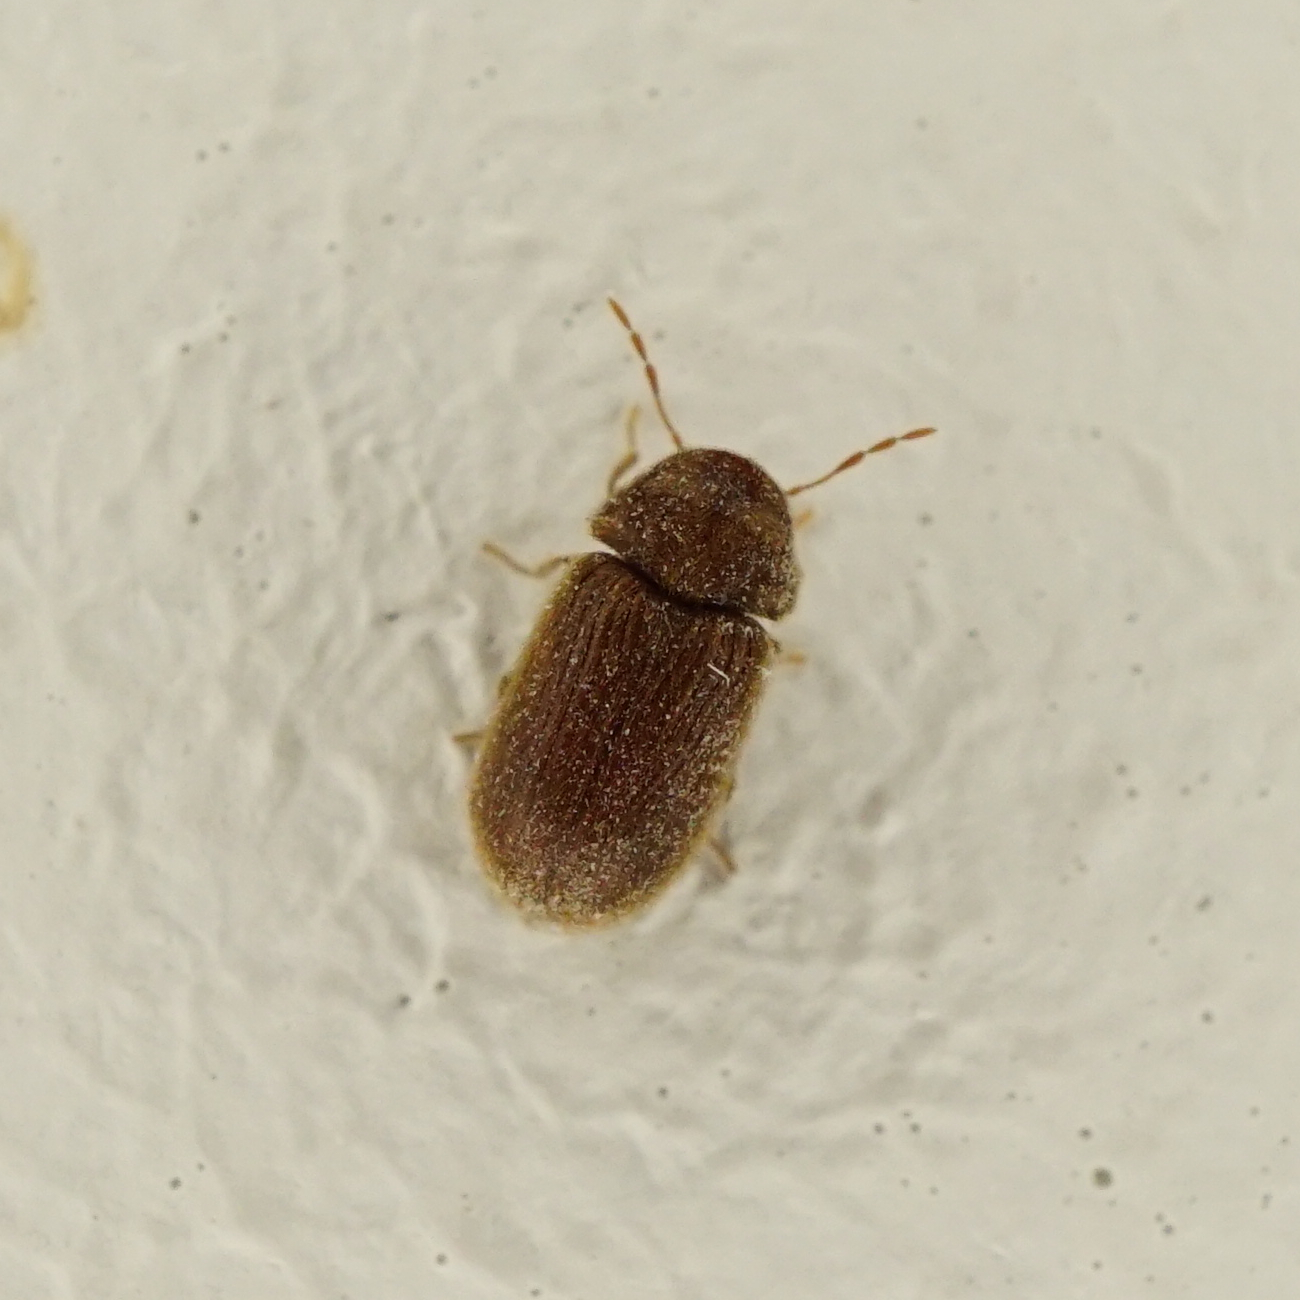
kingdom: Animalia
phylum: Arthropoda
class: Insecta
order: Coleoptera
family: Anobiidae
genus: Stegobium
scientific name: Stegobium paniceum
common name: Drugstore beetle
